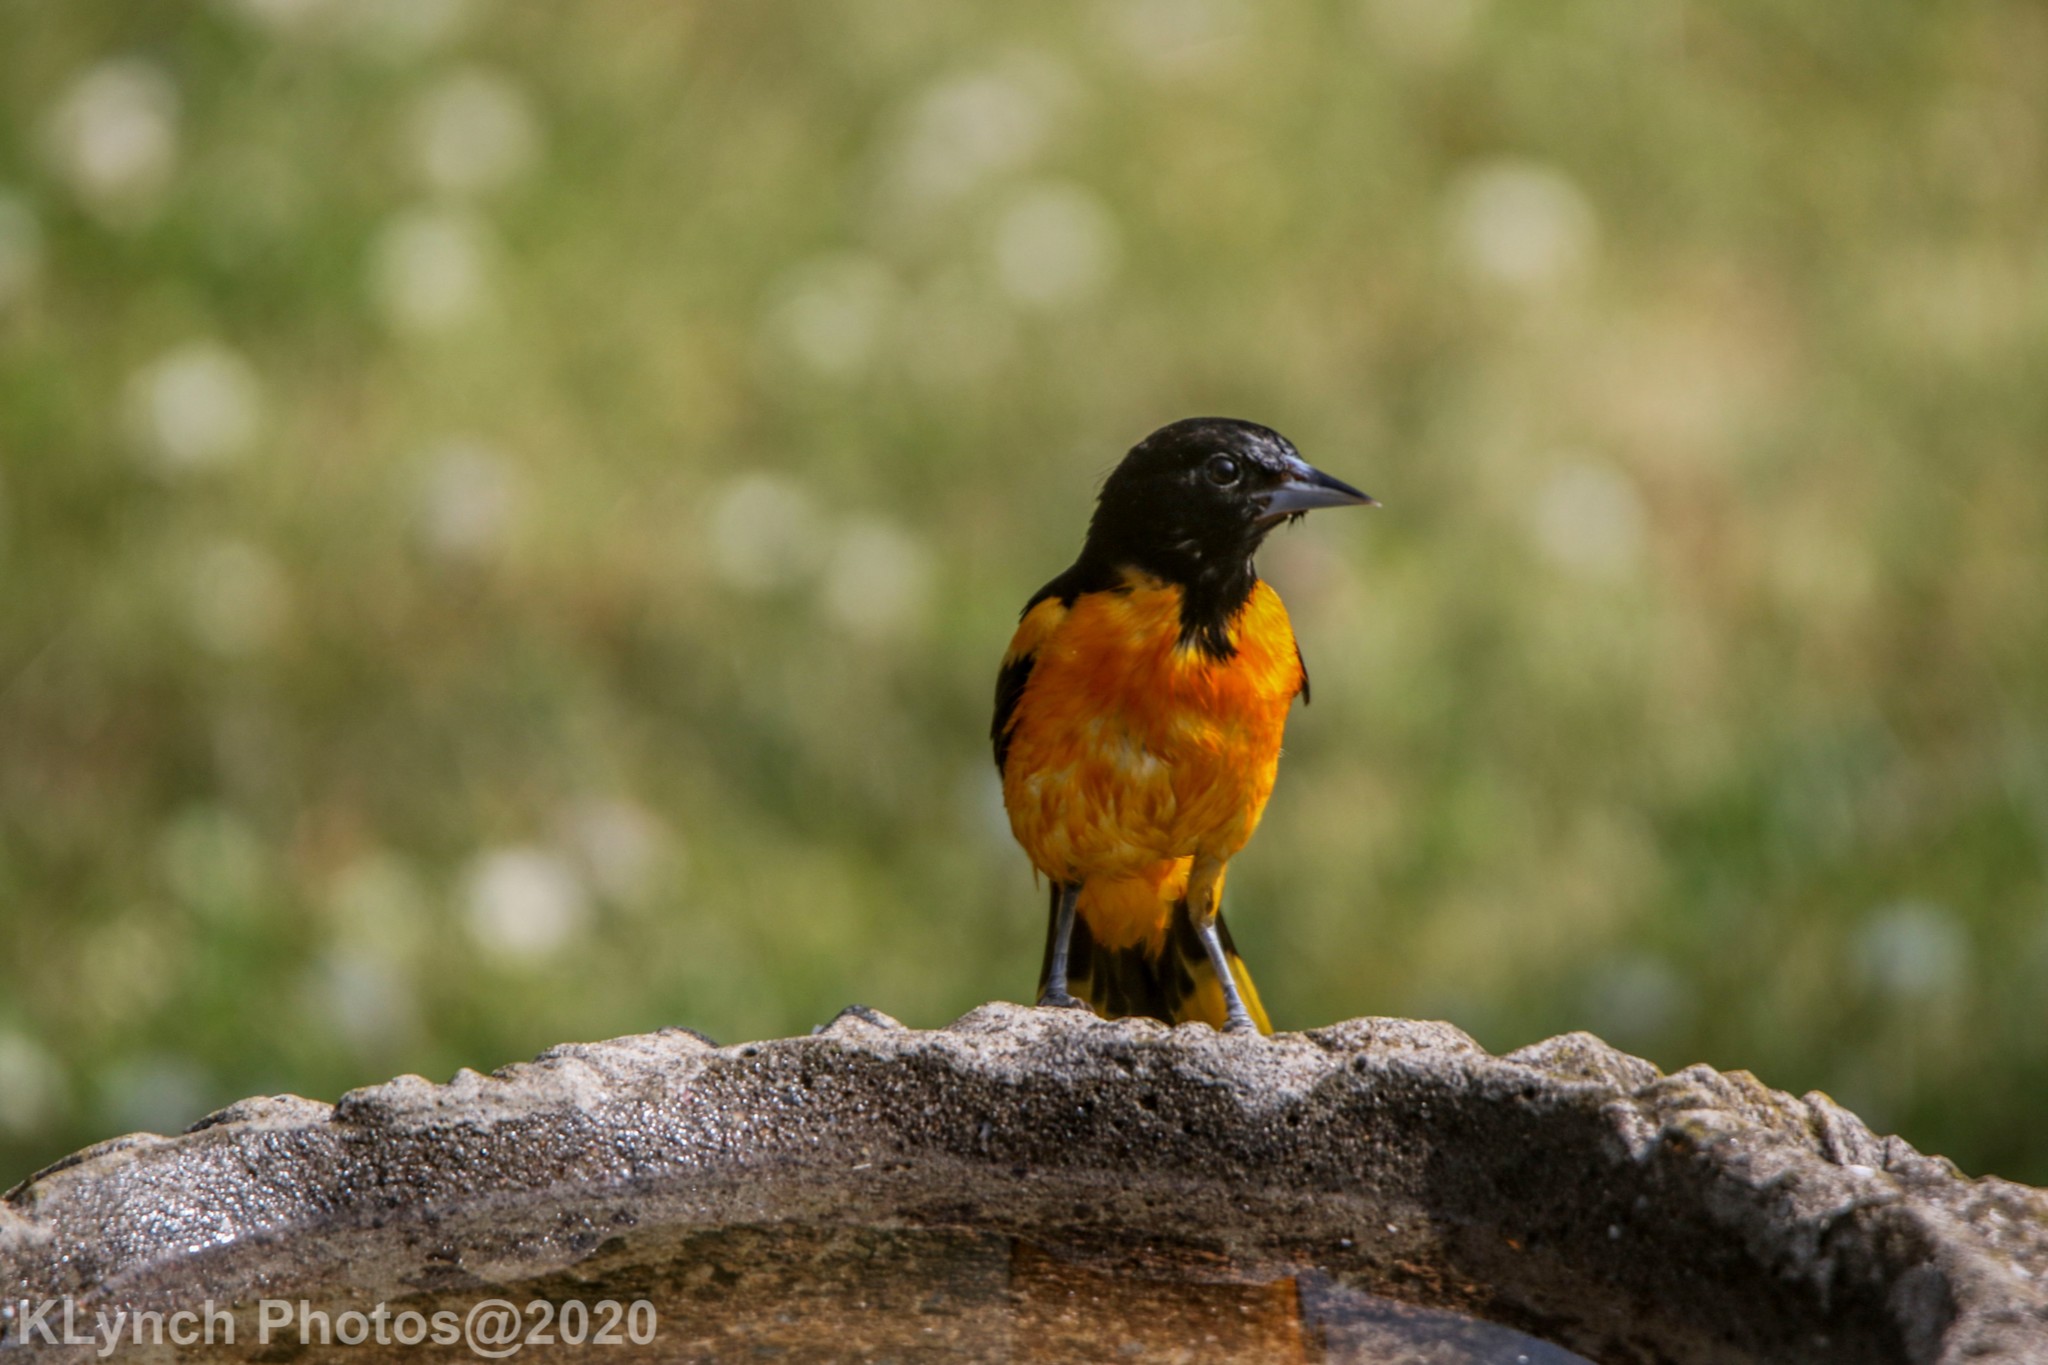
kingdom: Animalia
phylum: Chordata
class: Aves
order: Passeriformes
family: Icteridae
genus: Icterus
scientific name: Icterus galbula
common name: Baltimore oriole
